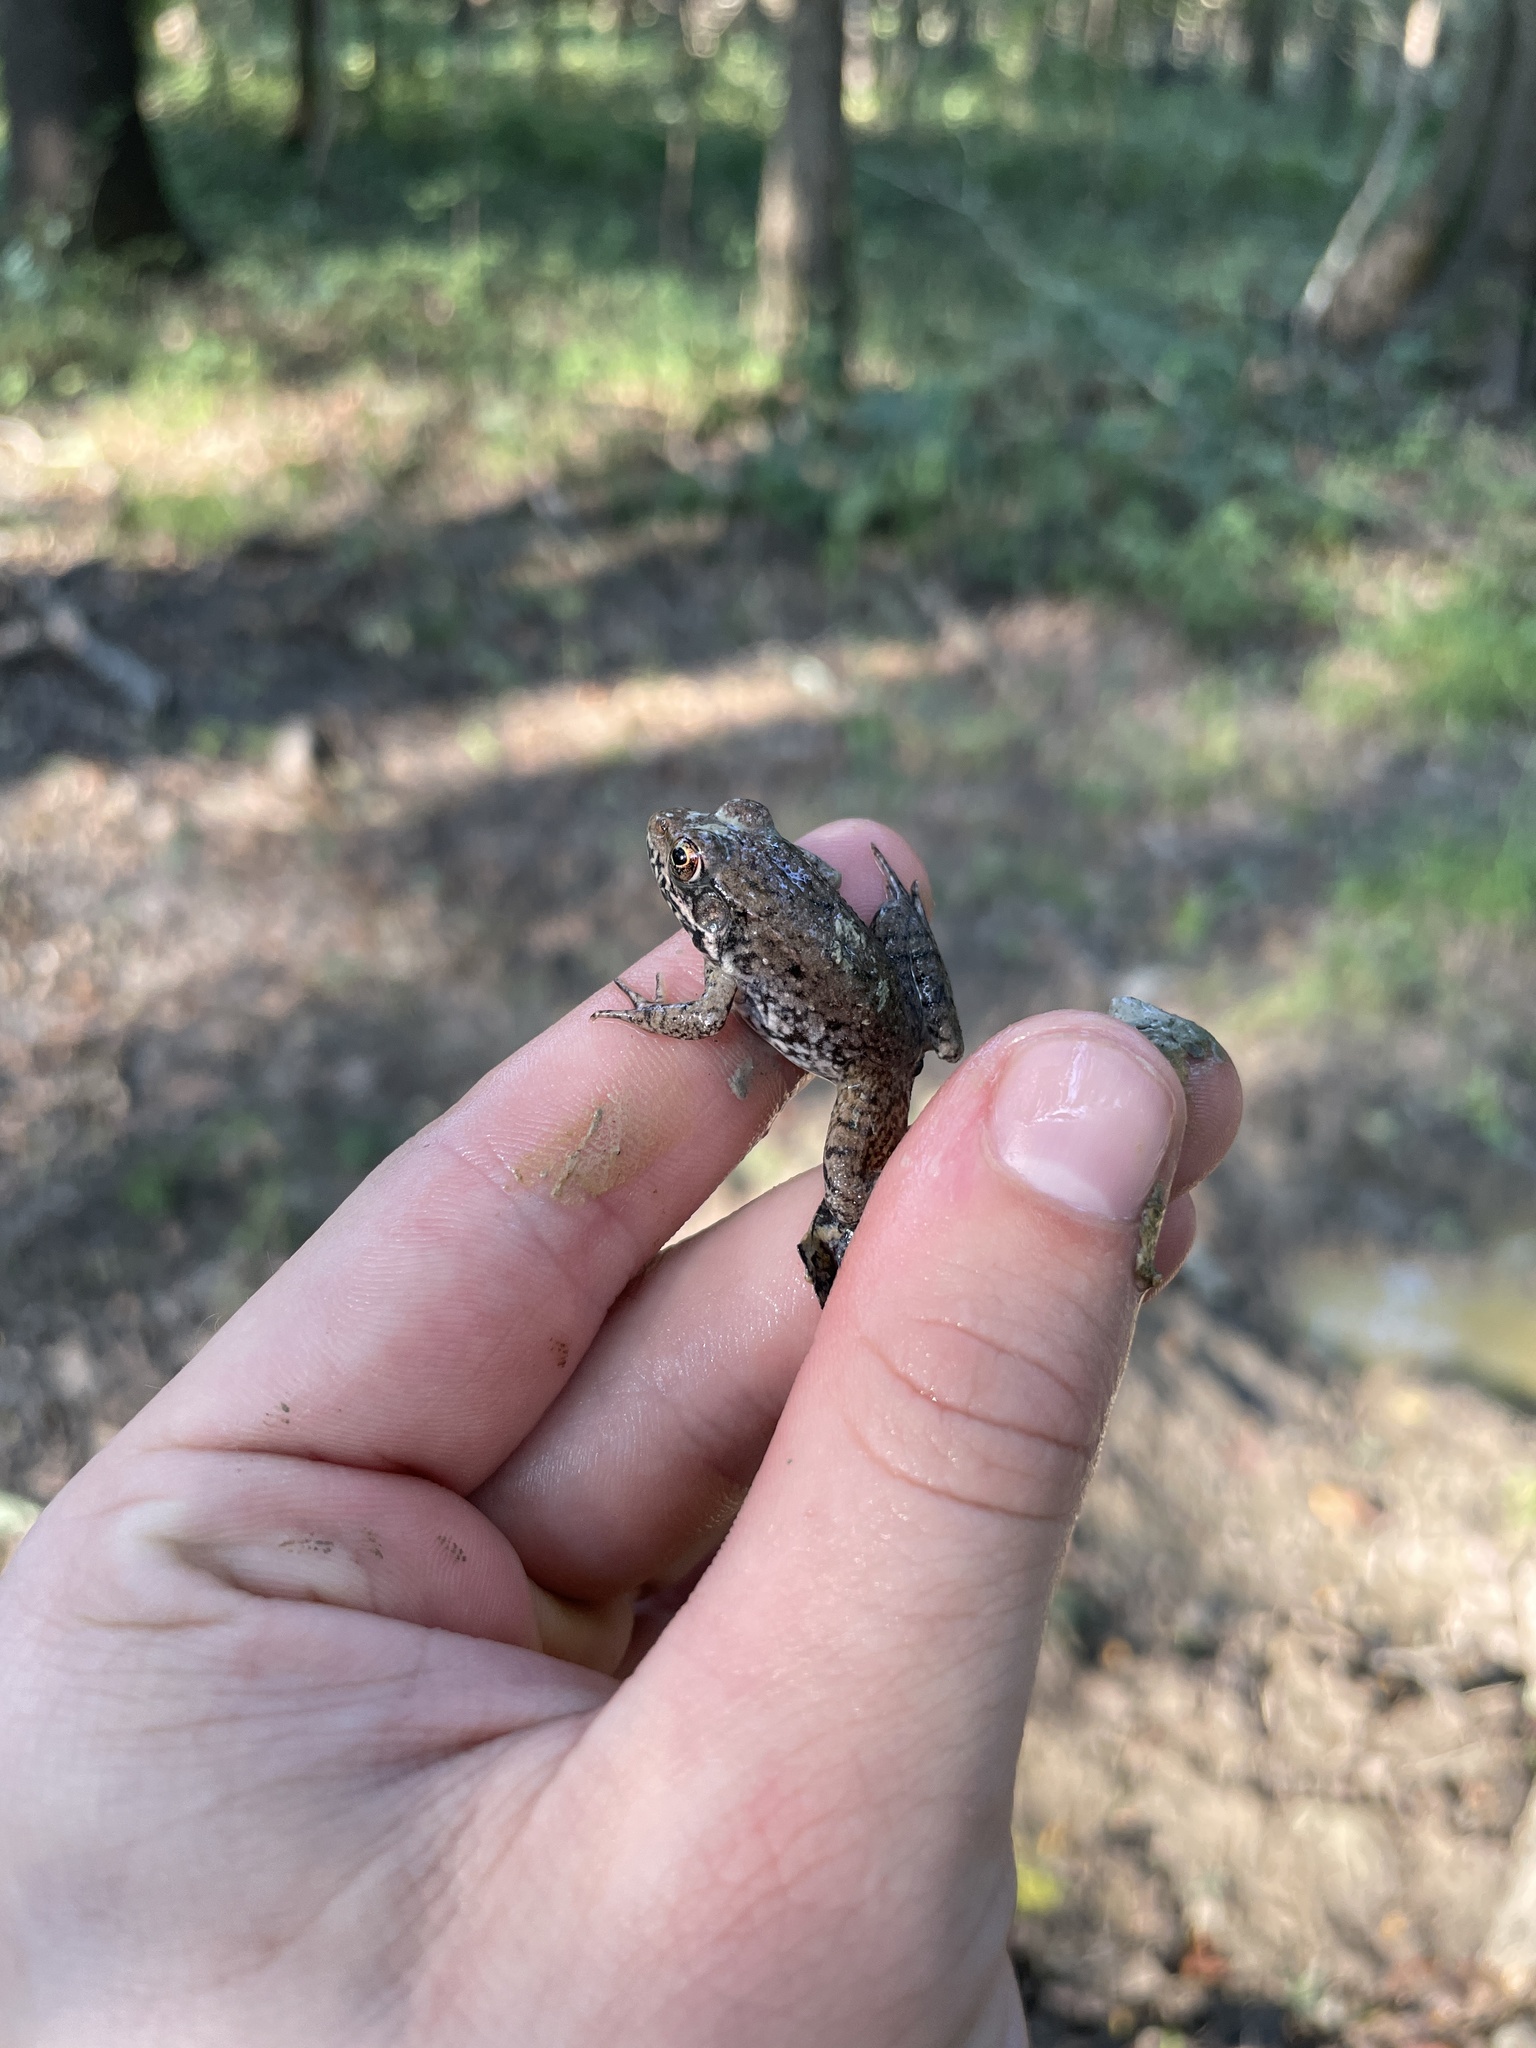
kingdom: Animalia
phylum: Chordata
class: Amphibia
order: Anura
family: Ranidae
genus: Lithobates
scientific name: Lithobates clamitans
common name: Green frog
